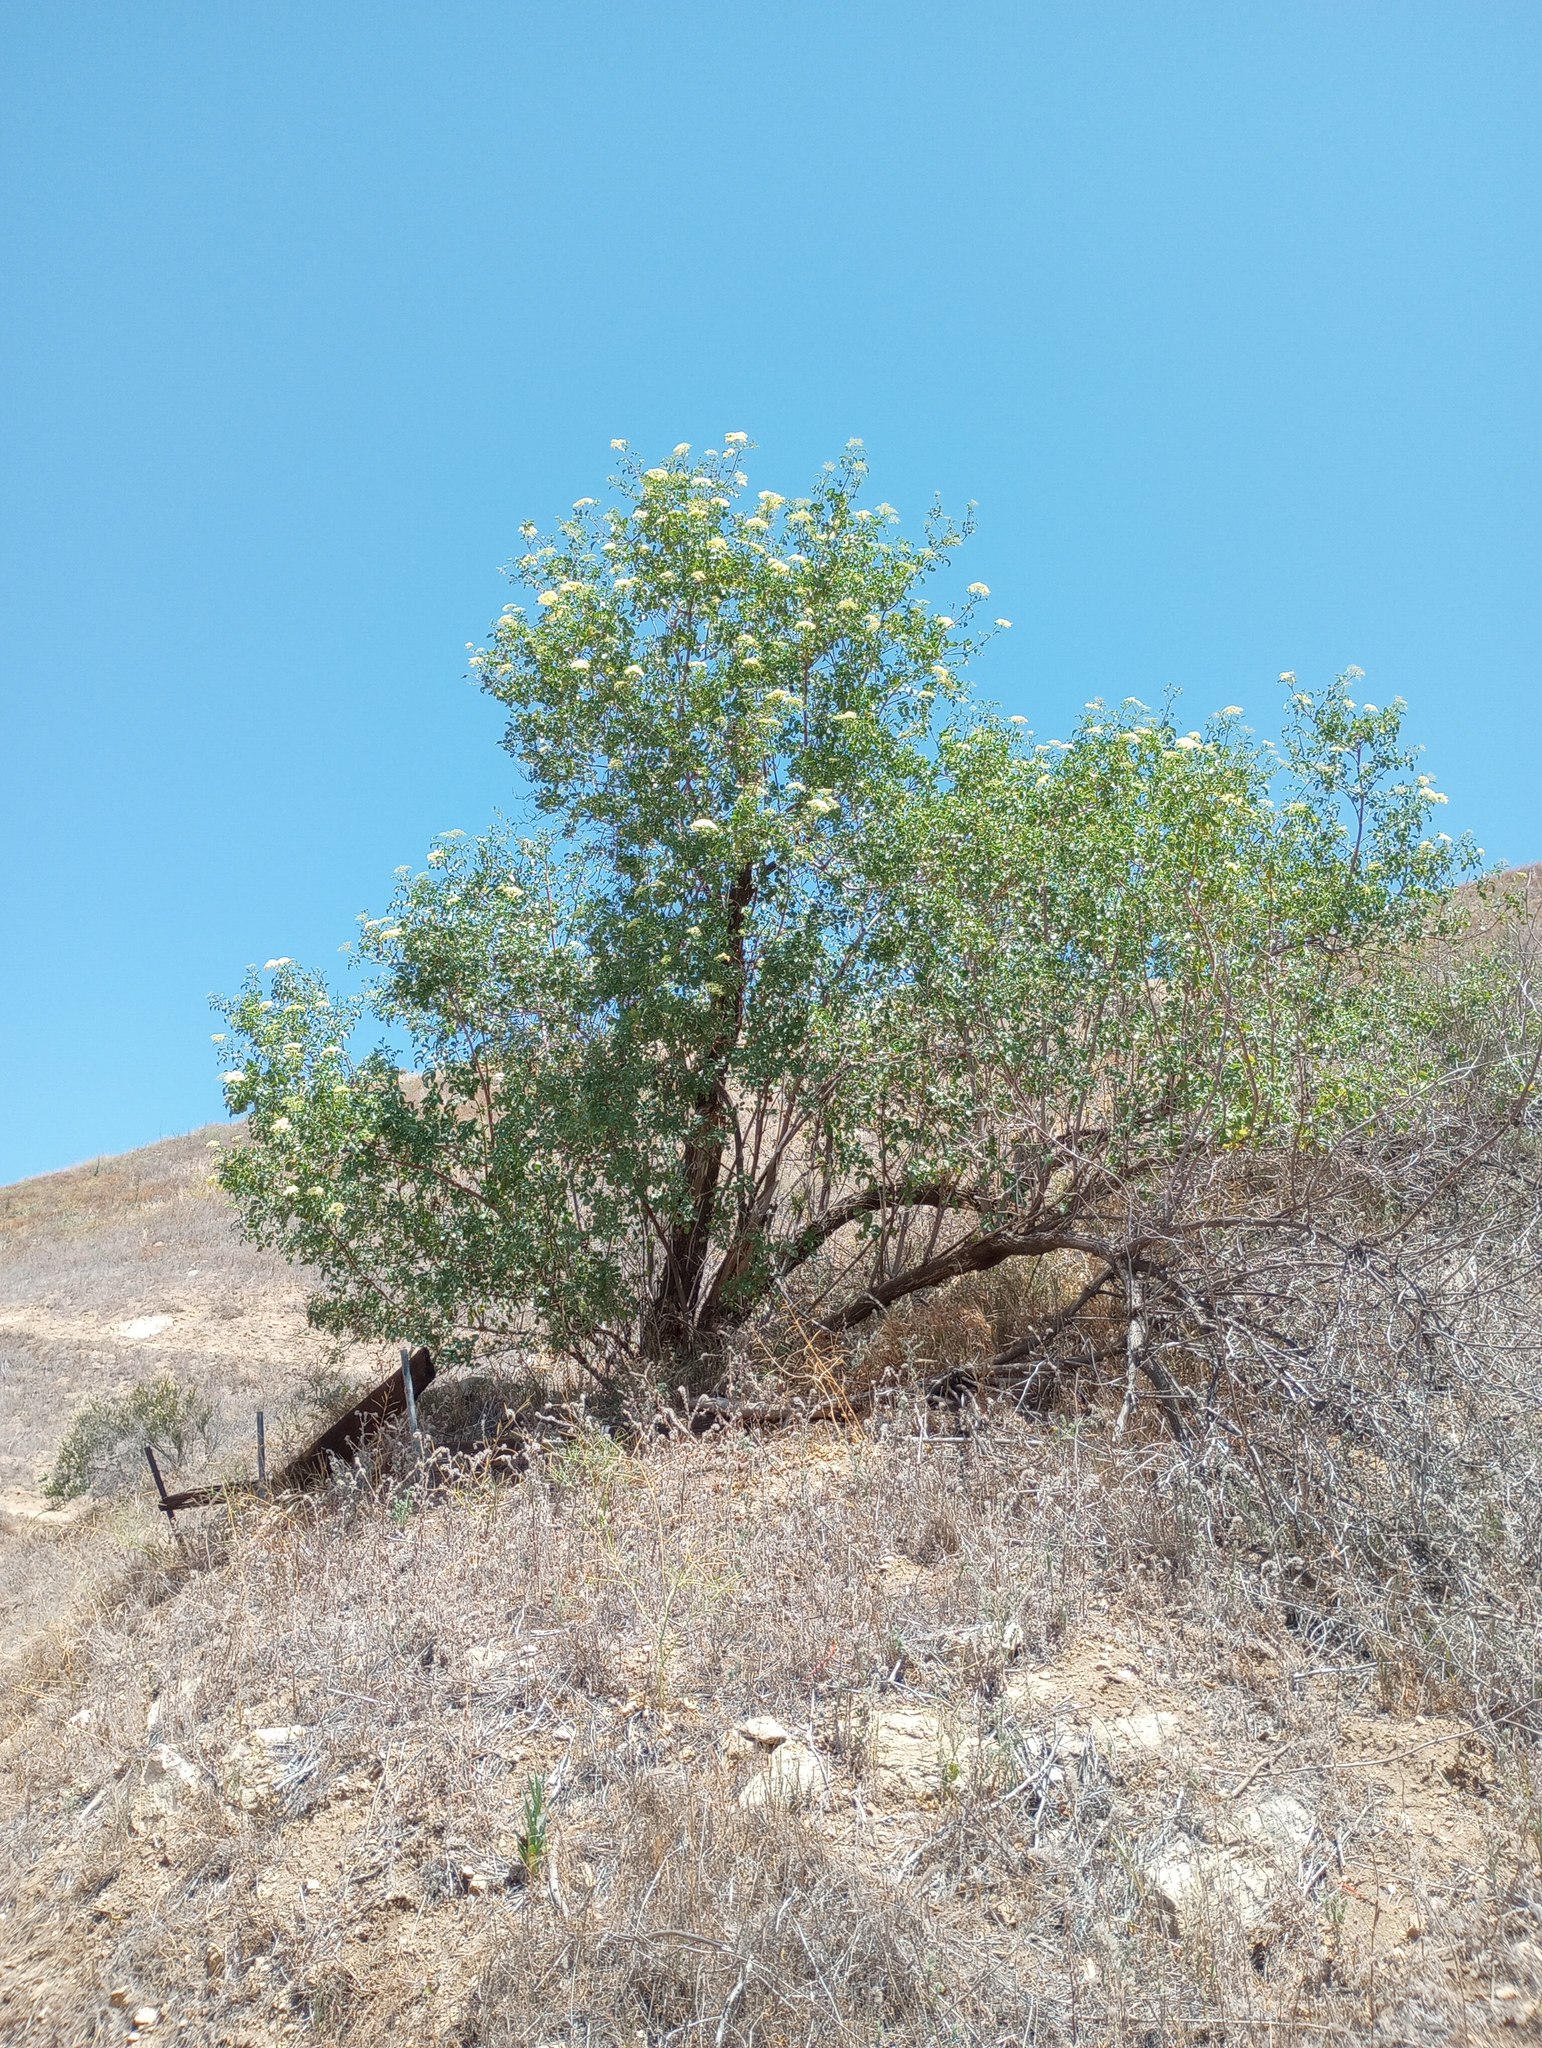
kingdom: Plantae
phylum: Tracheophyta
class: Magnoliopsida
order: Dipsacales
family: Viburnaceae
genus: Sambucus
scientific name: Sambucus cerulea
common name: Blue elder
